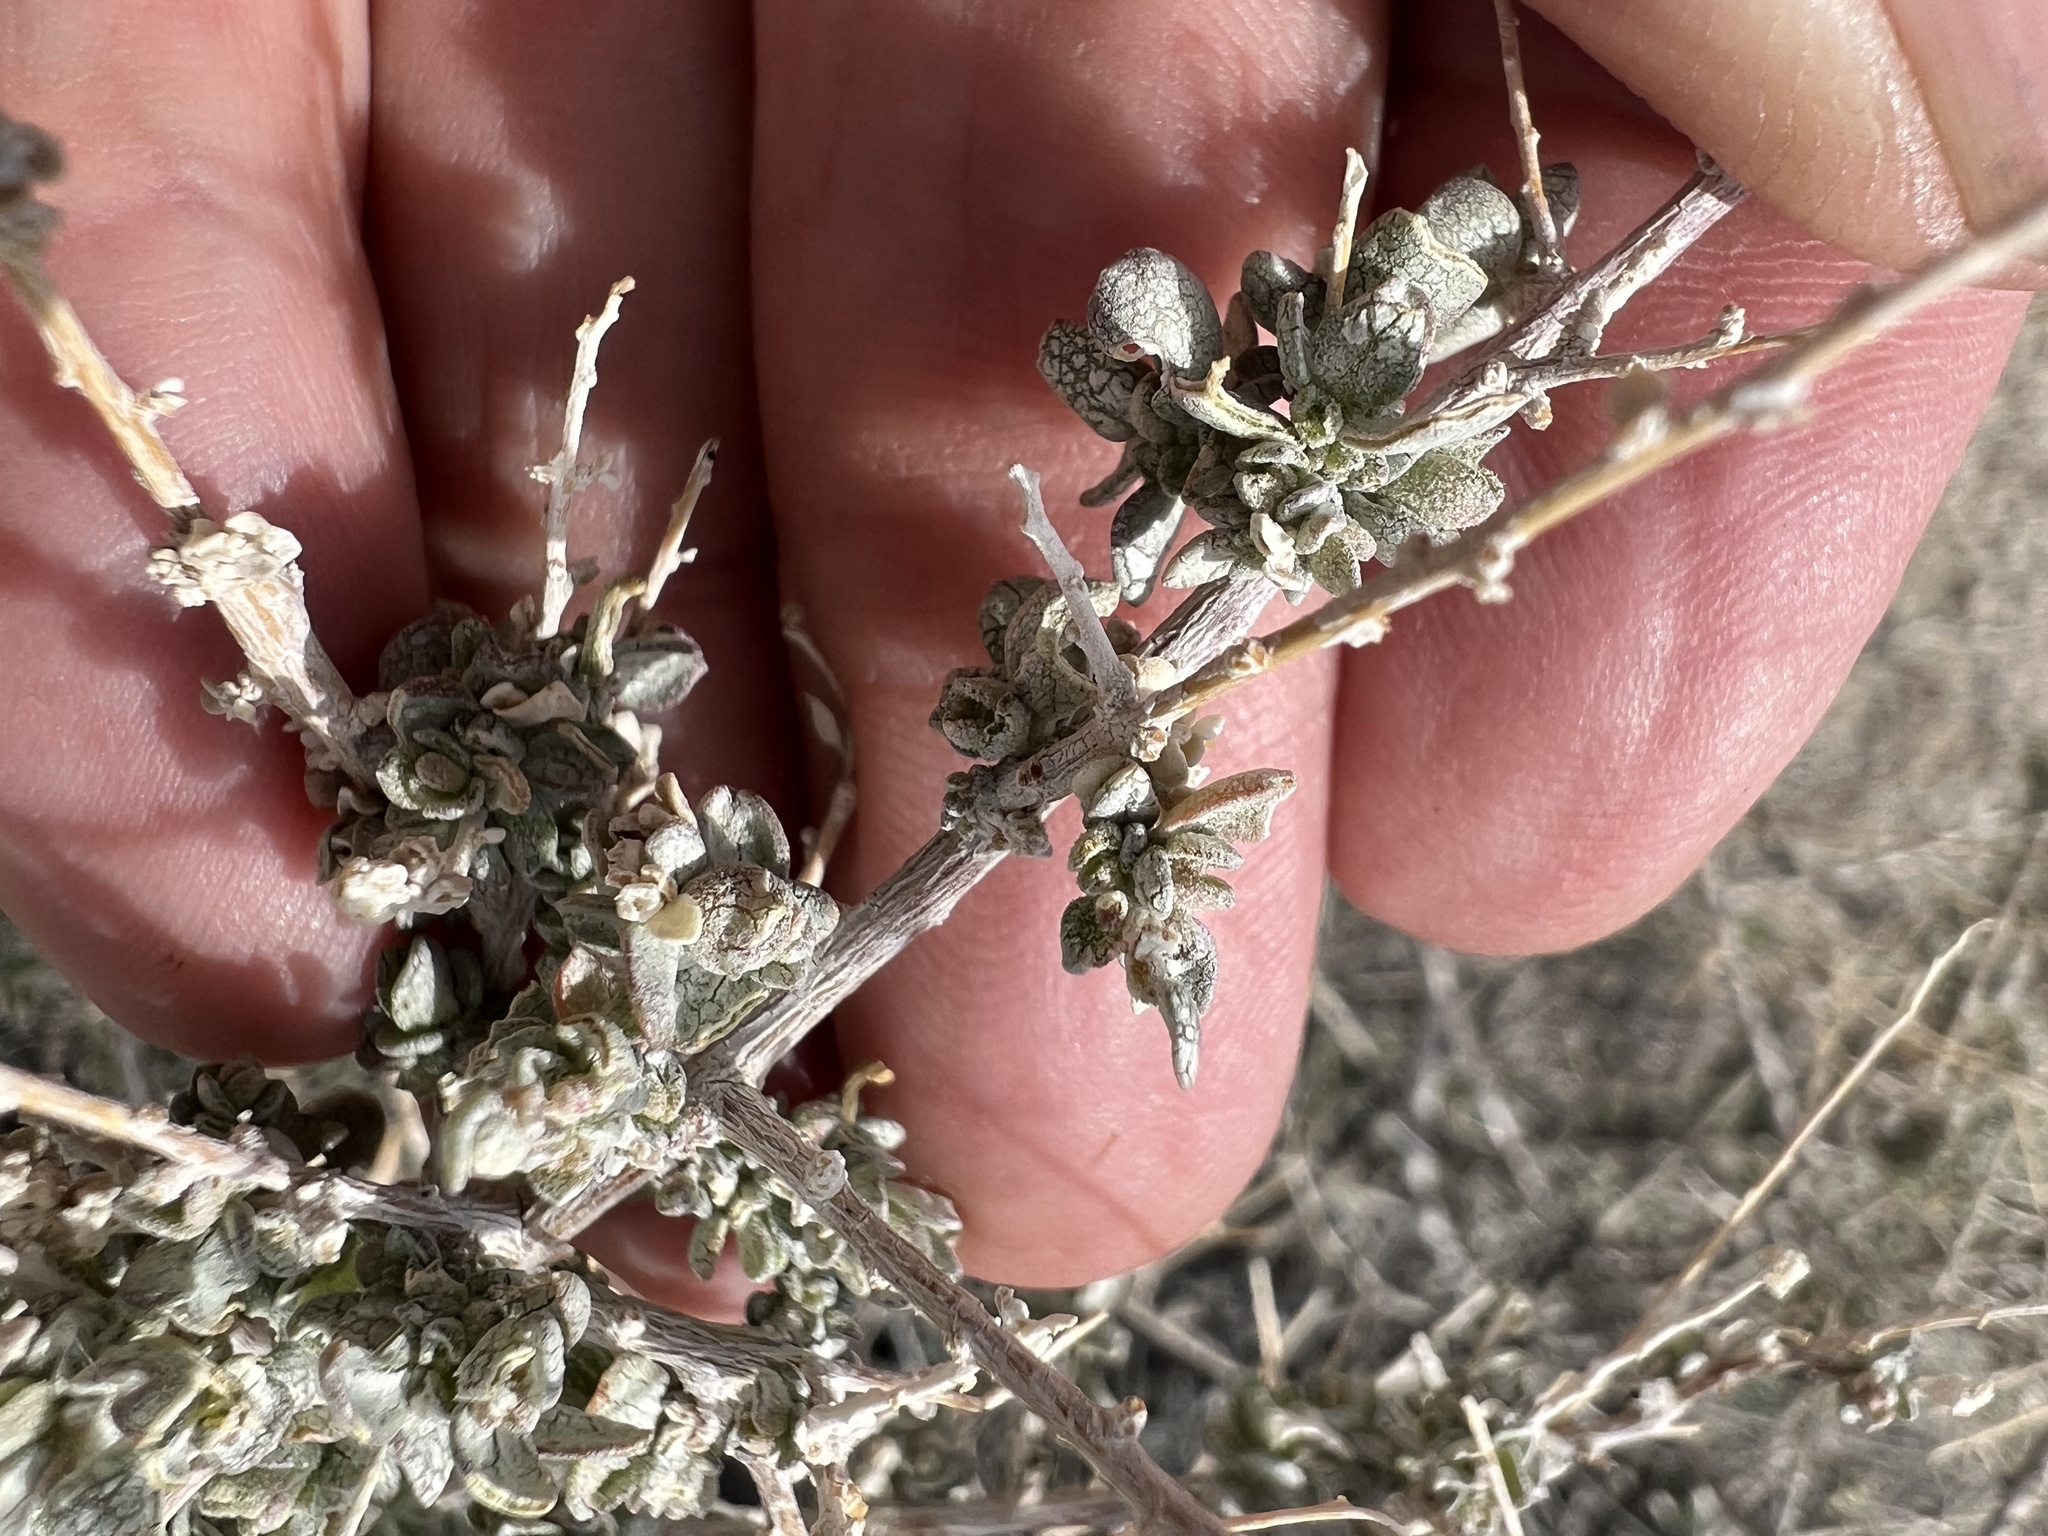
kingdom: Plantae
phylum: Tracheophyta
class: Magnoliopsida
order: Caryophyllales
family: Amaranthaceae
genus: Atriplex
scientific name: Atriplex polycarpa
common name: Desert saltbush
